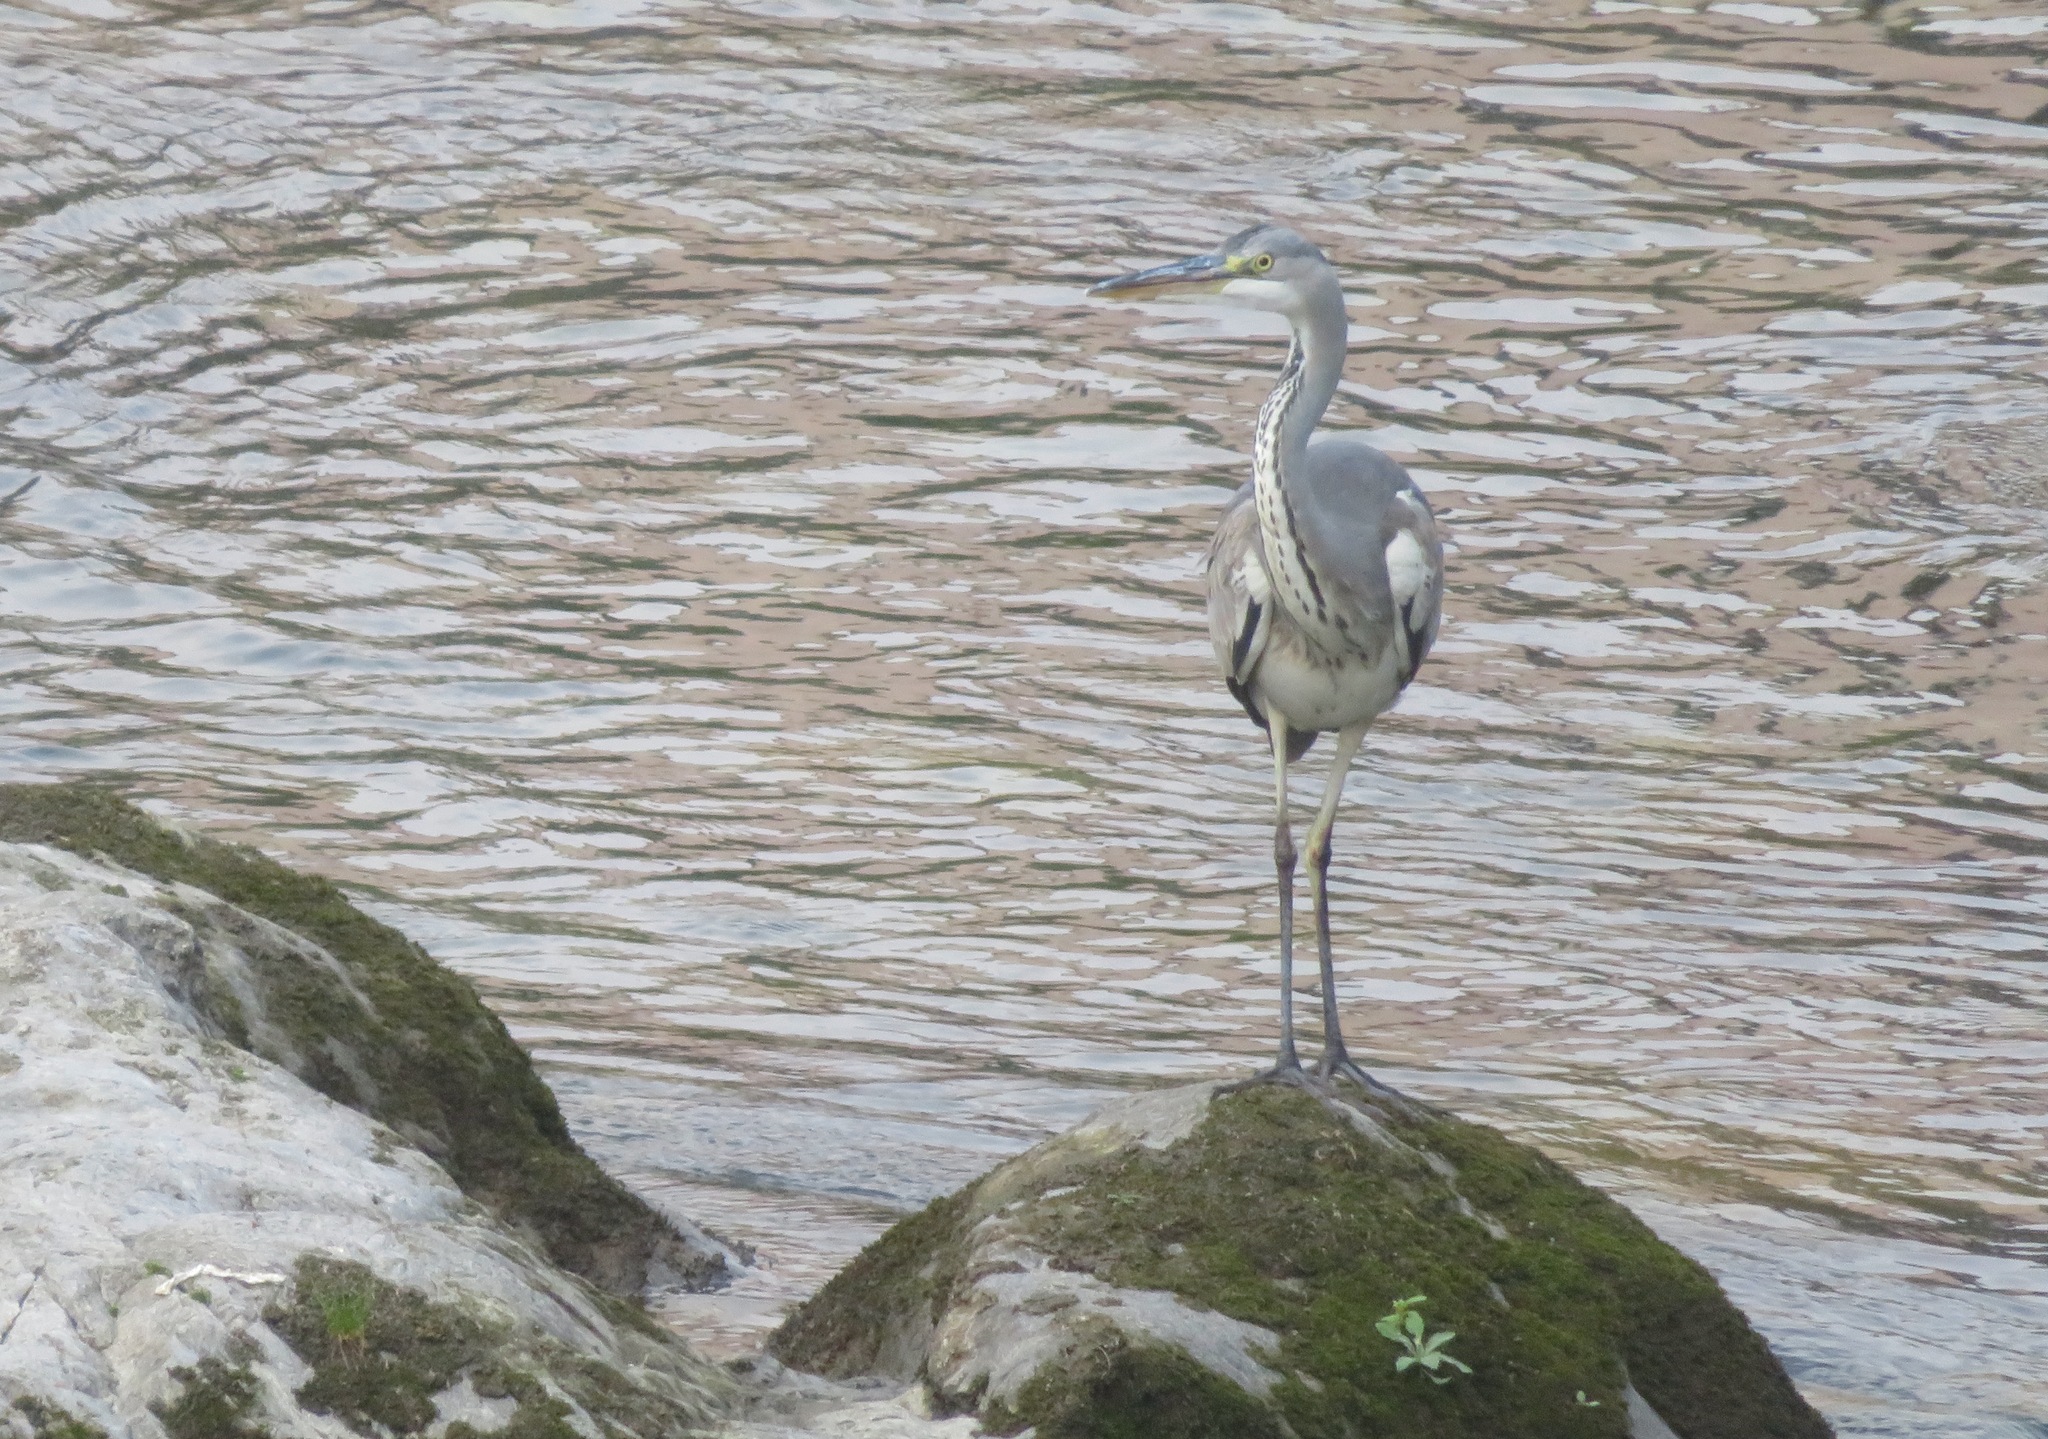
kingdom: Animalia
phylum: Chordata
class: Aves
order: Pelecaniformes
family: Ardeidae
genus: Ardea
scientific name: Ardea cinerea
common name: Grey heron
